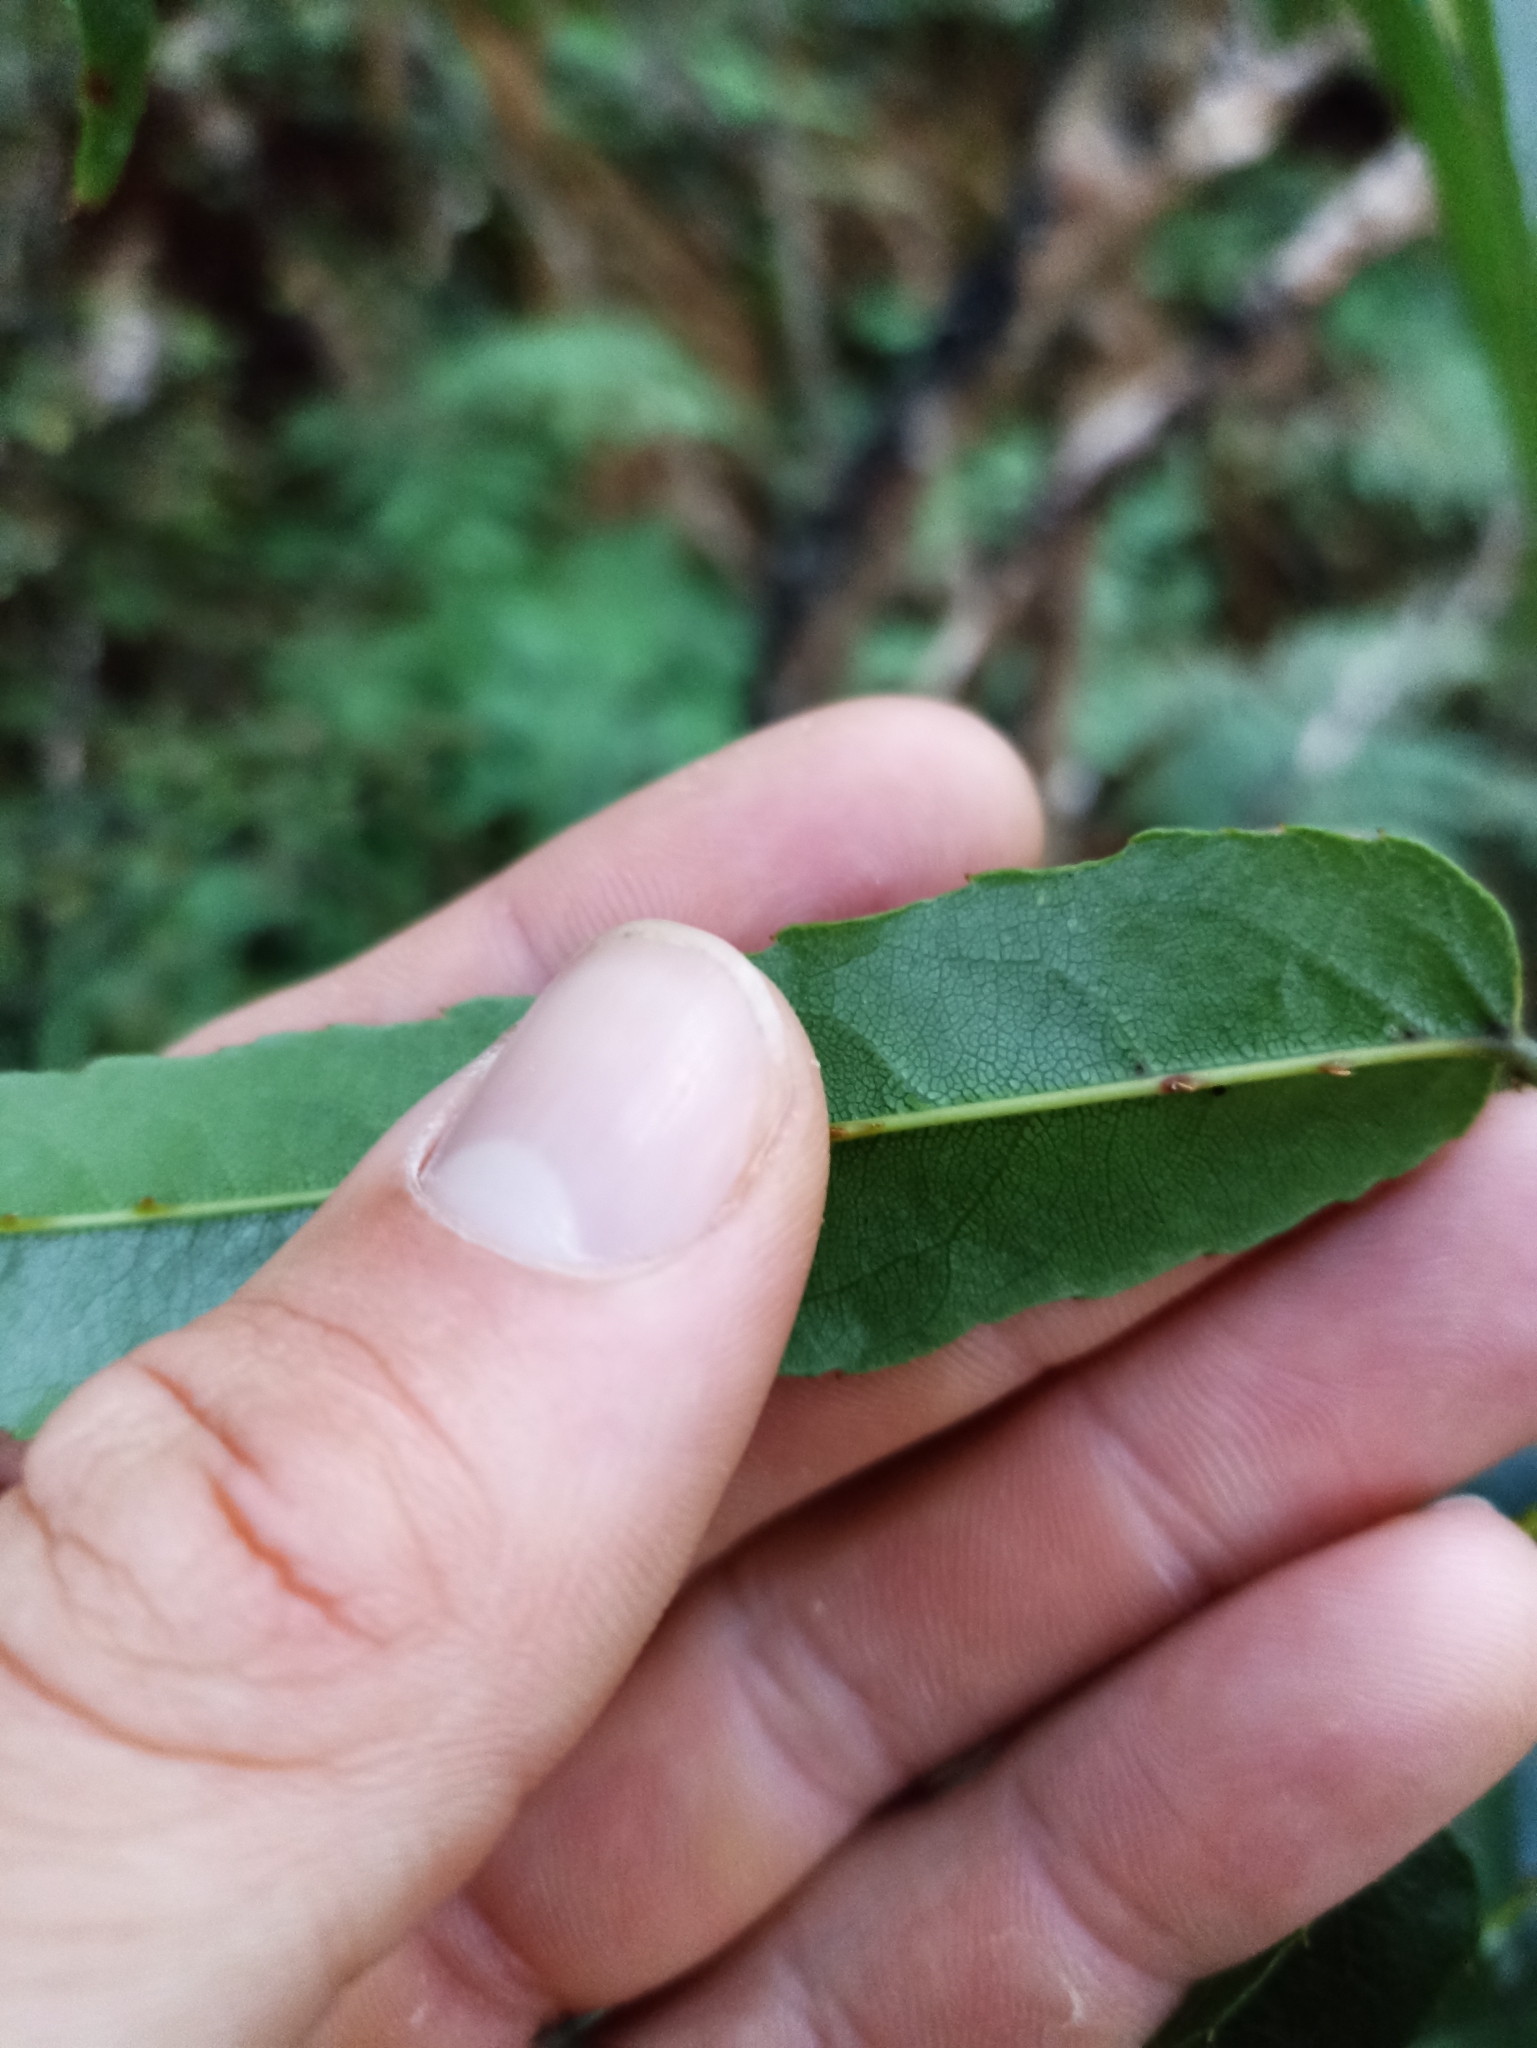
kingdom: Plantae
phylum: Tracheophyta
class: Magnoliopsida
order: Rosales
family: Rosaceae
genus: Rubus
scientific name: Rubus cissoides
